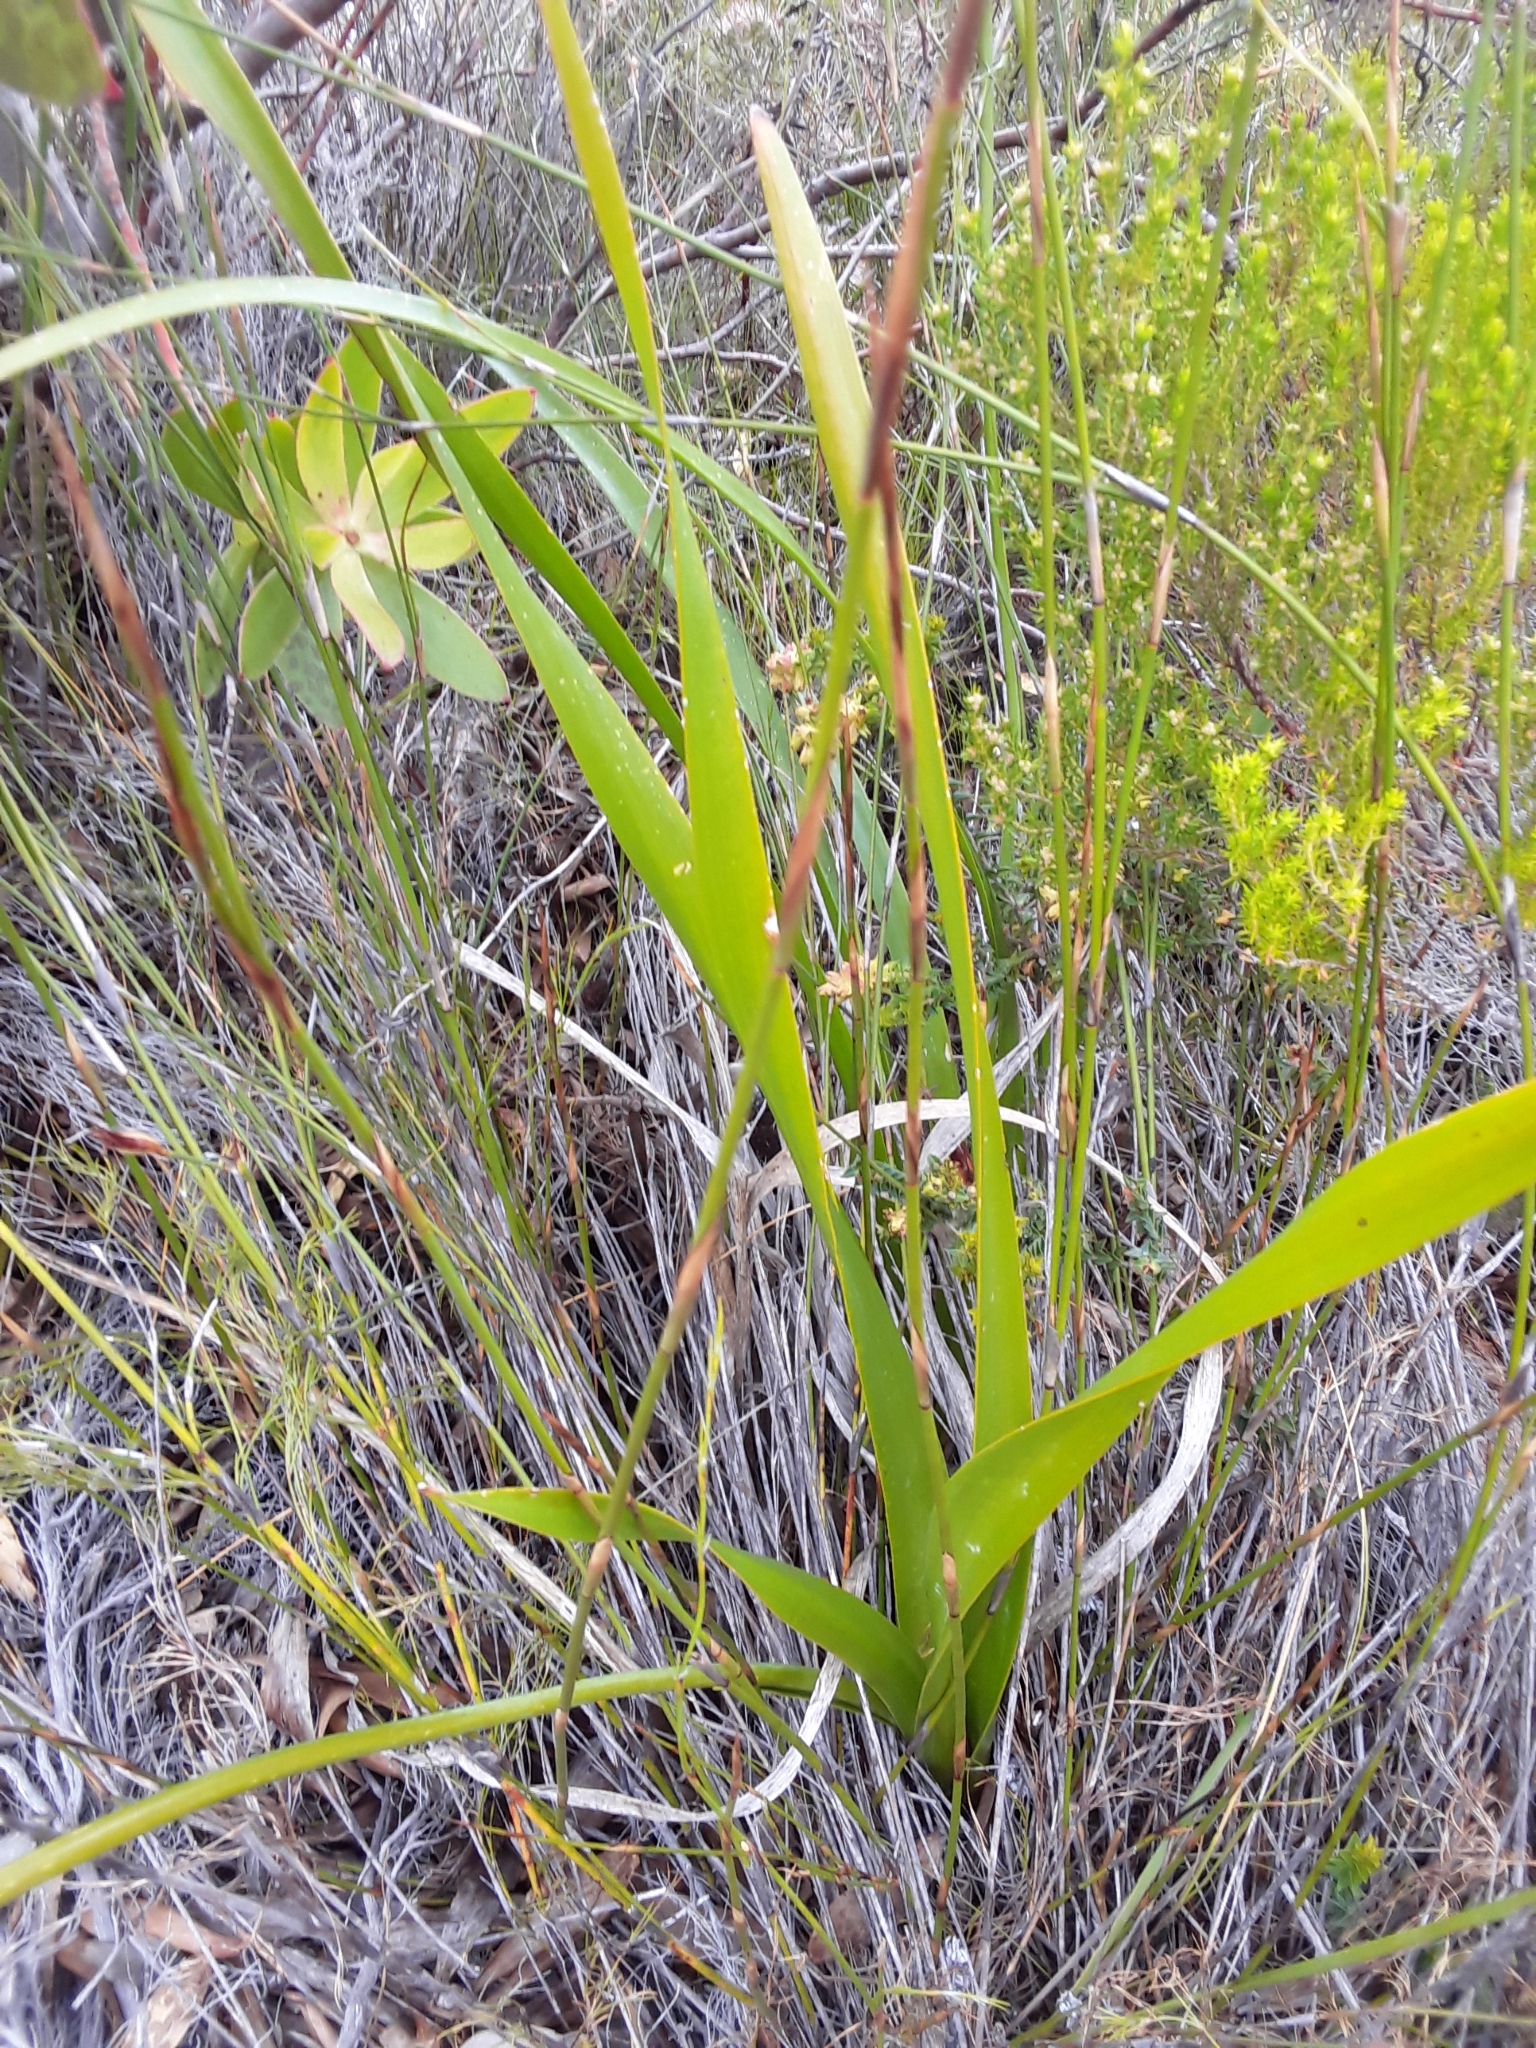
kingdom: Plantae
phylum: Tracheophyta
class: Liliopsida
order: Asparagales
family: Asphodelaceae
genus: Trachyandra
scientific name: Trachyandra tabularis
